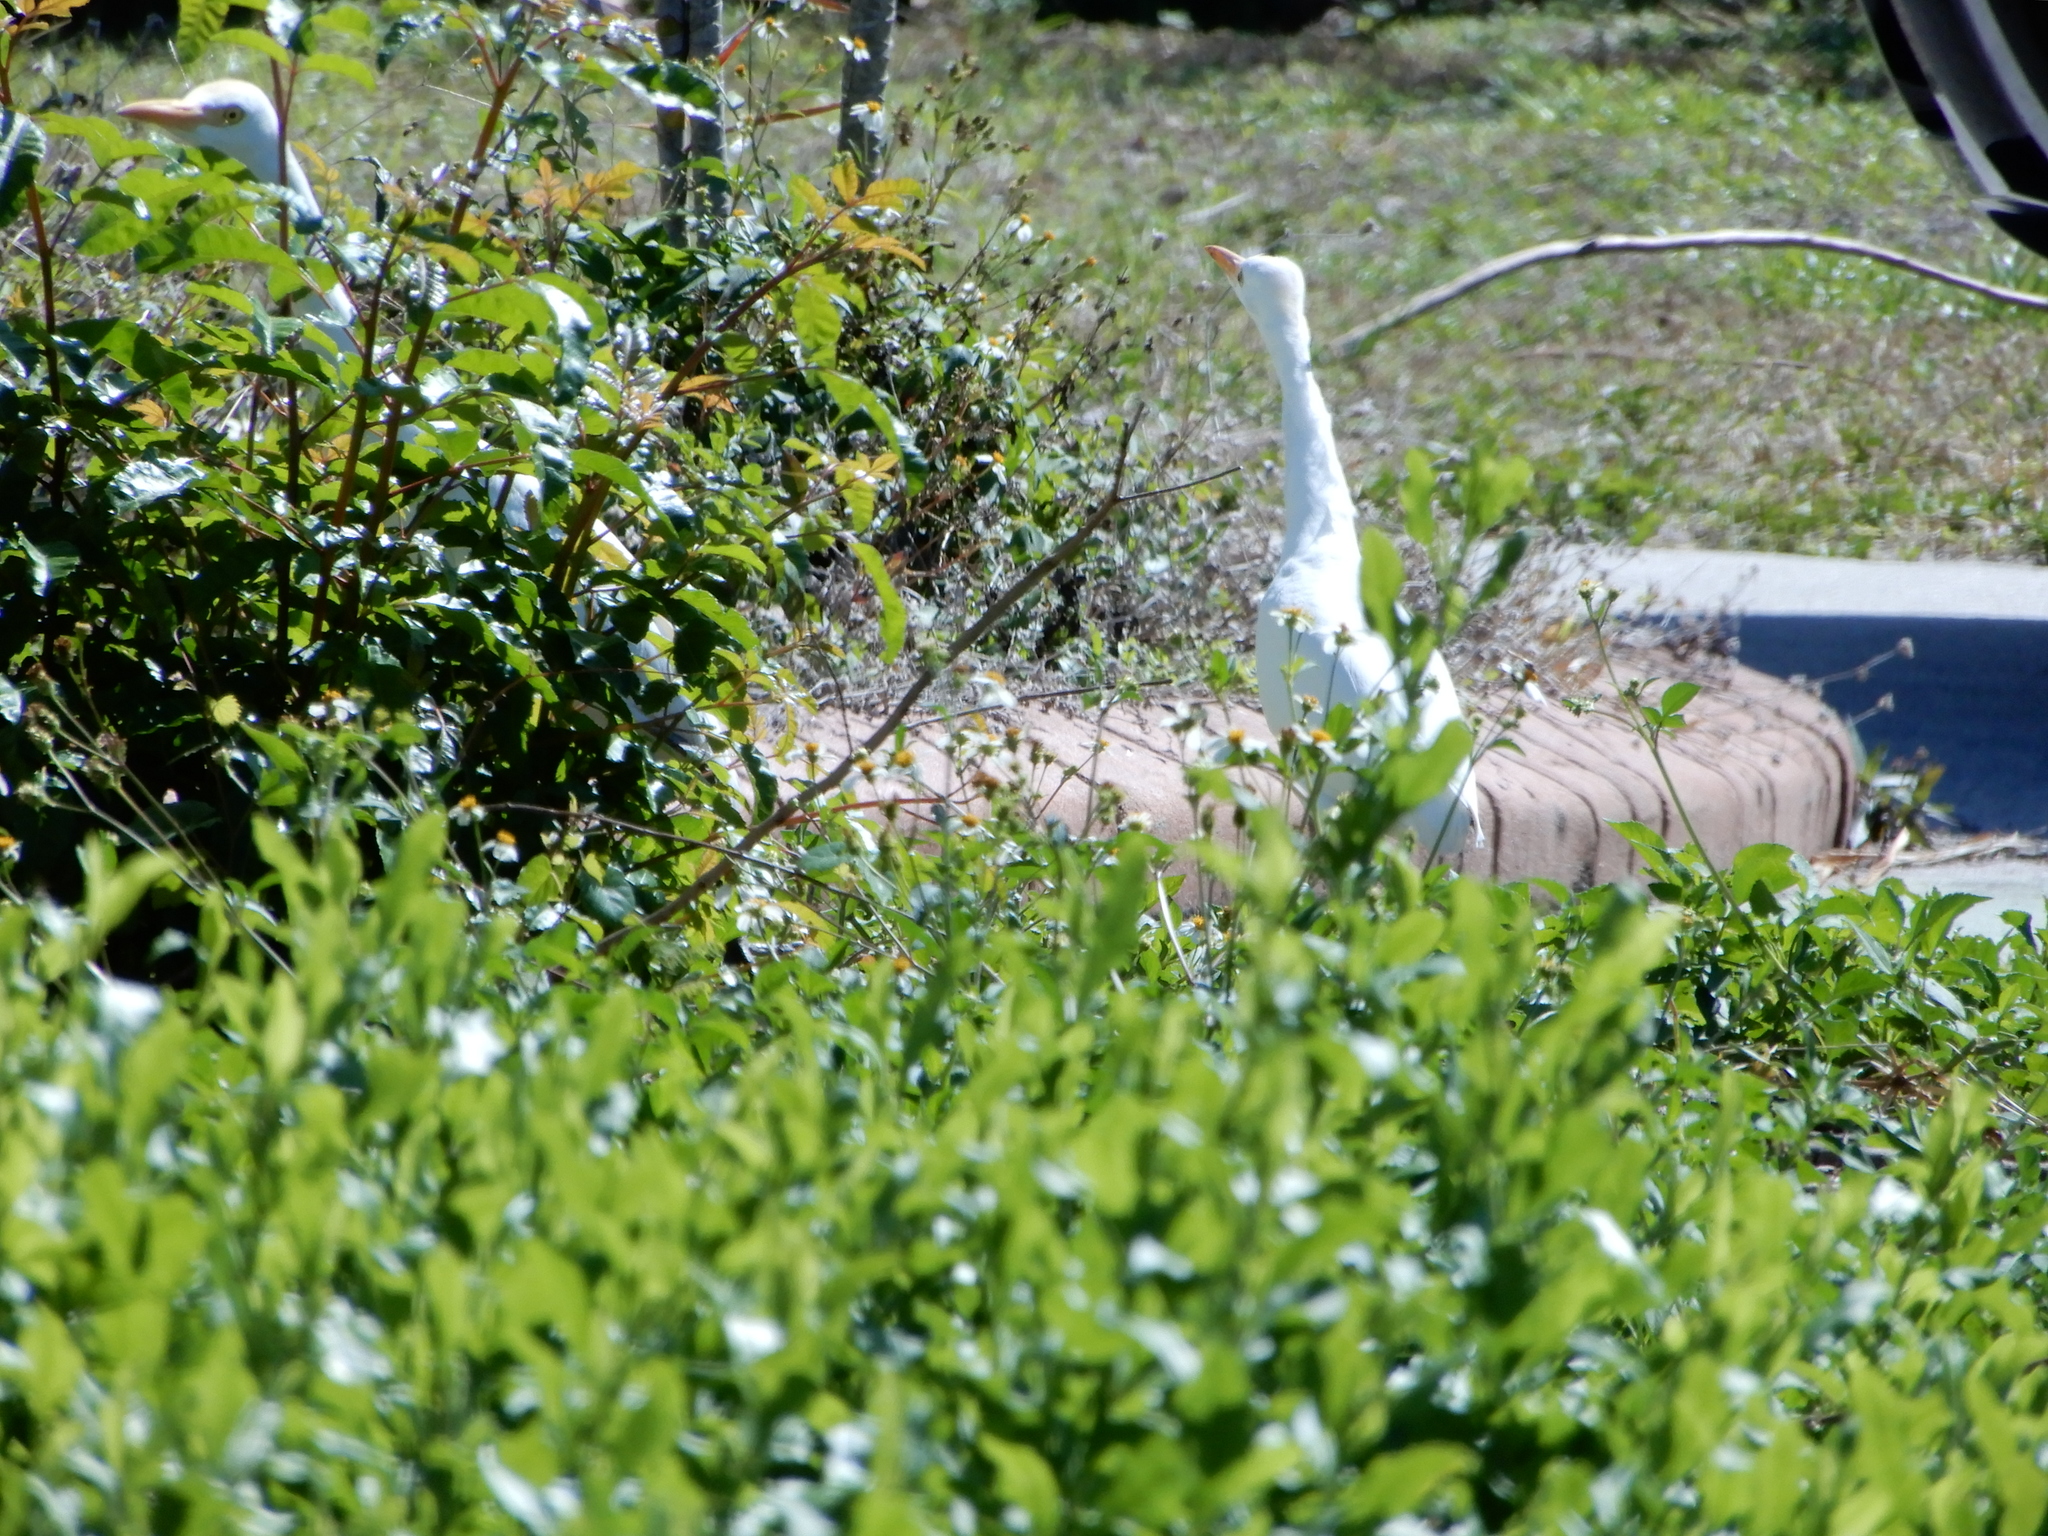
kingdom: Animalia
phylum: Chordata
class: Aves
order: Pelecaniformes
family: Ardeidae
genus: Bubulcus
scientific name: Bubulcus ibis
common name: Cattle egret
